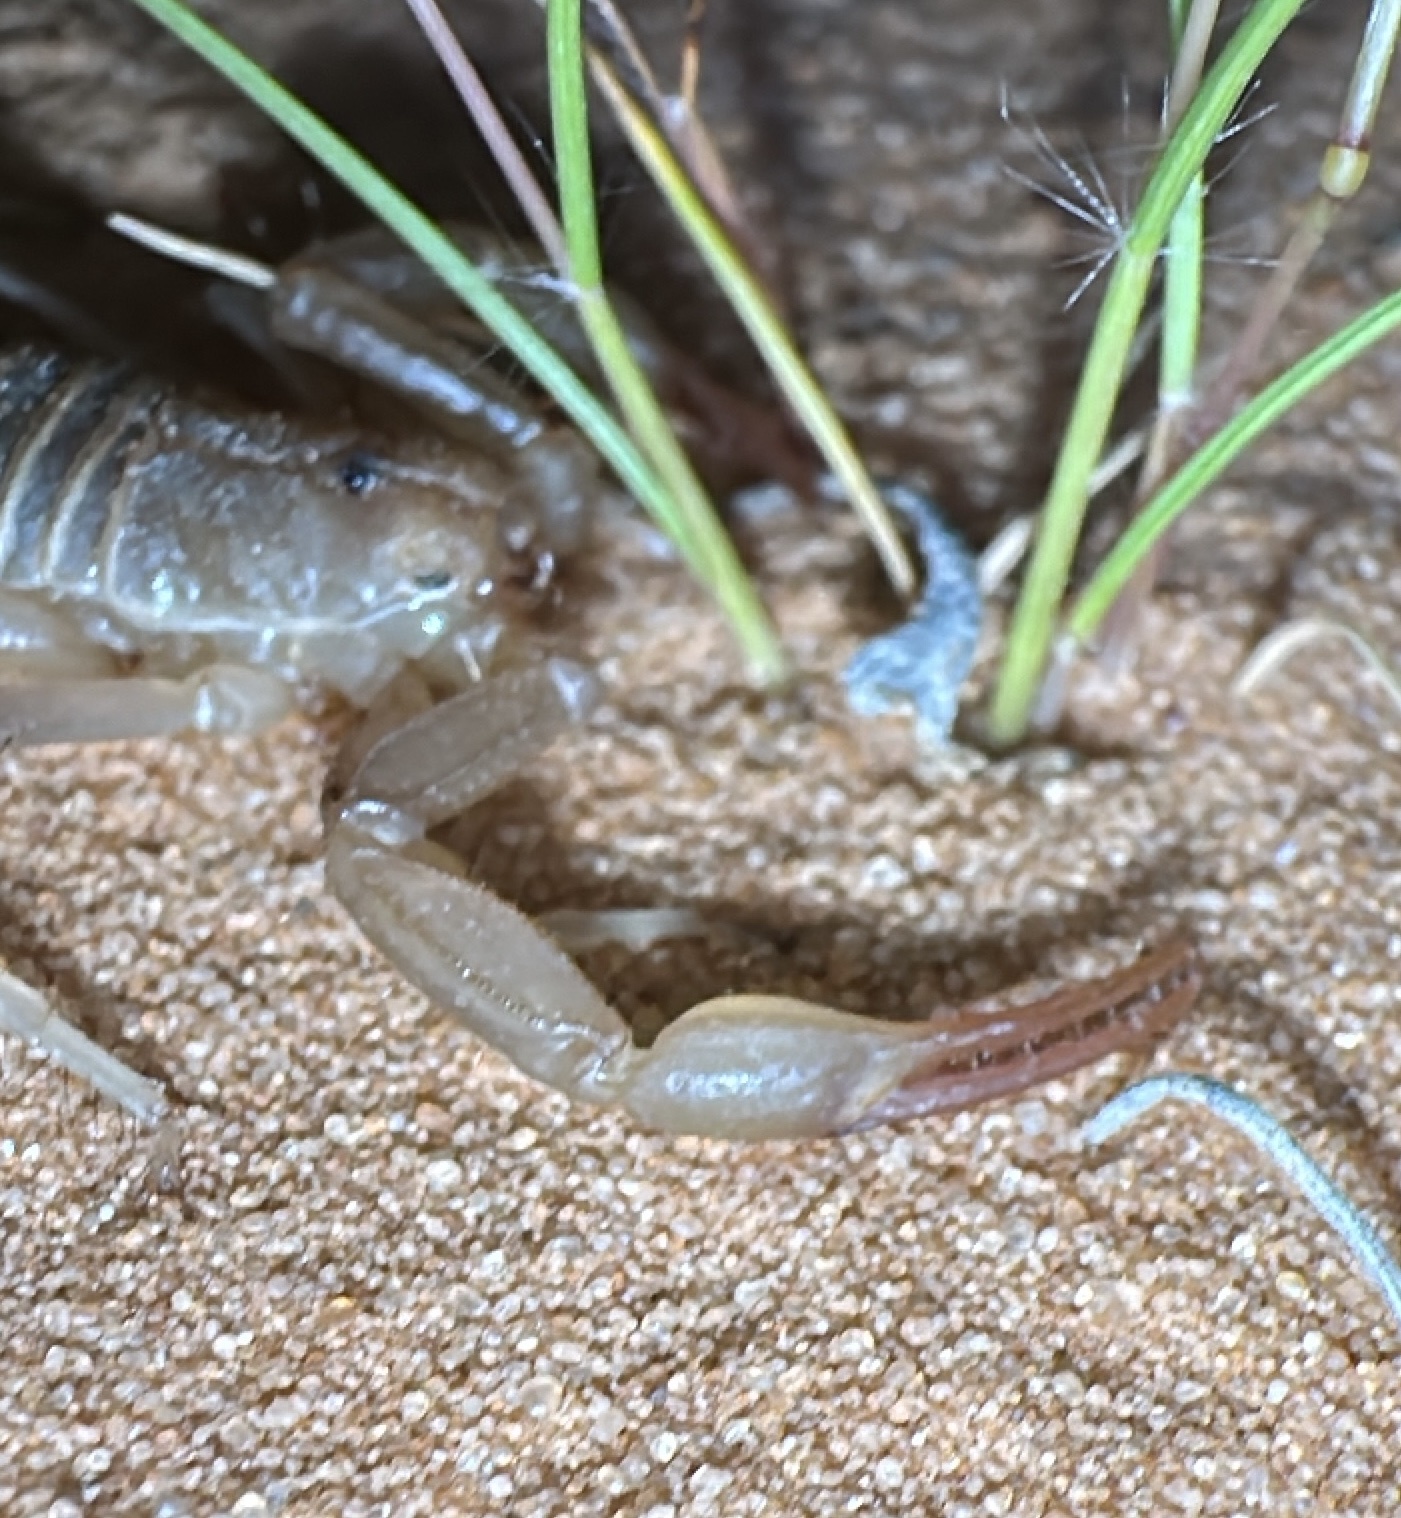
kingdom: Animalia
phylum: Arthropoda
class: Arachnida
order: Scorpiones
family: Vaejovidae
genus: Paravaejovis
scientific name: Paravaejovis confusus
